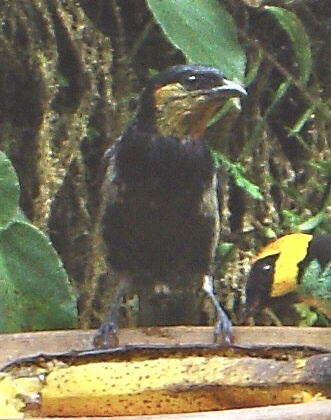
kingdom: Animalia
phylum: Chordata
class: Aves
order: Passeriformes
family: Thraupidae
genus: Stilpnia
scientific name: Stilpnia viridicollis
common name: Silver-backed tanager
